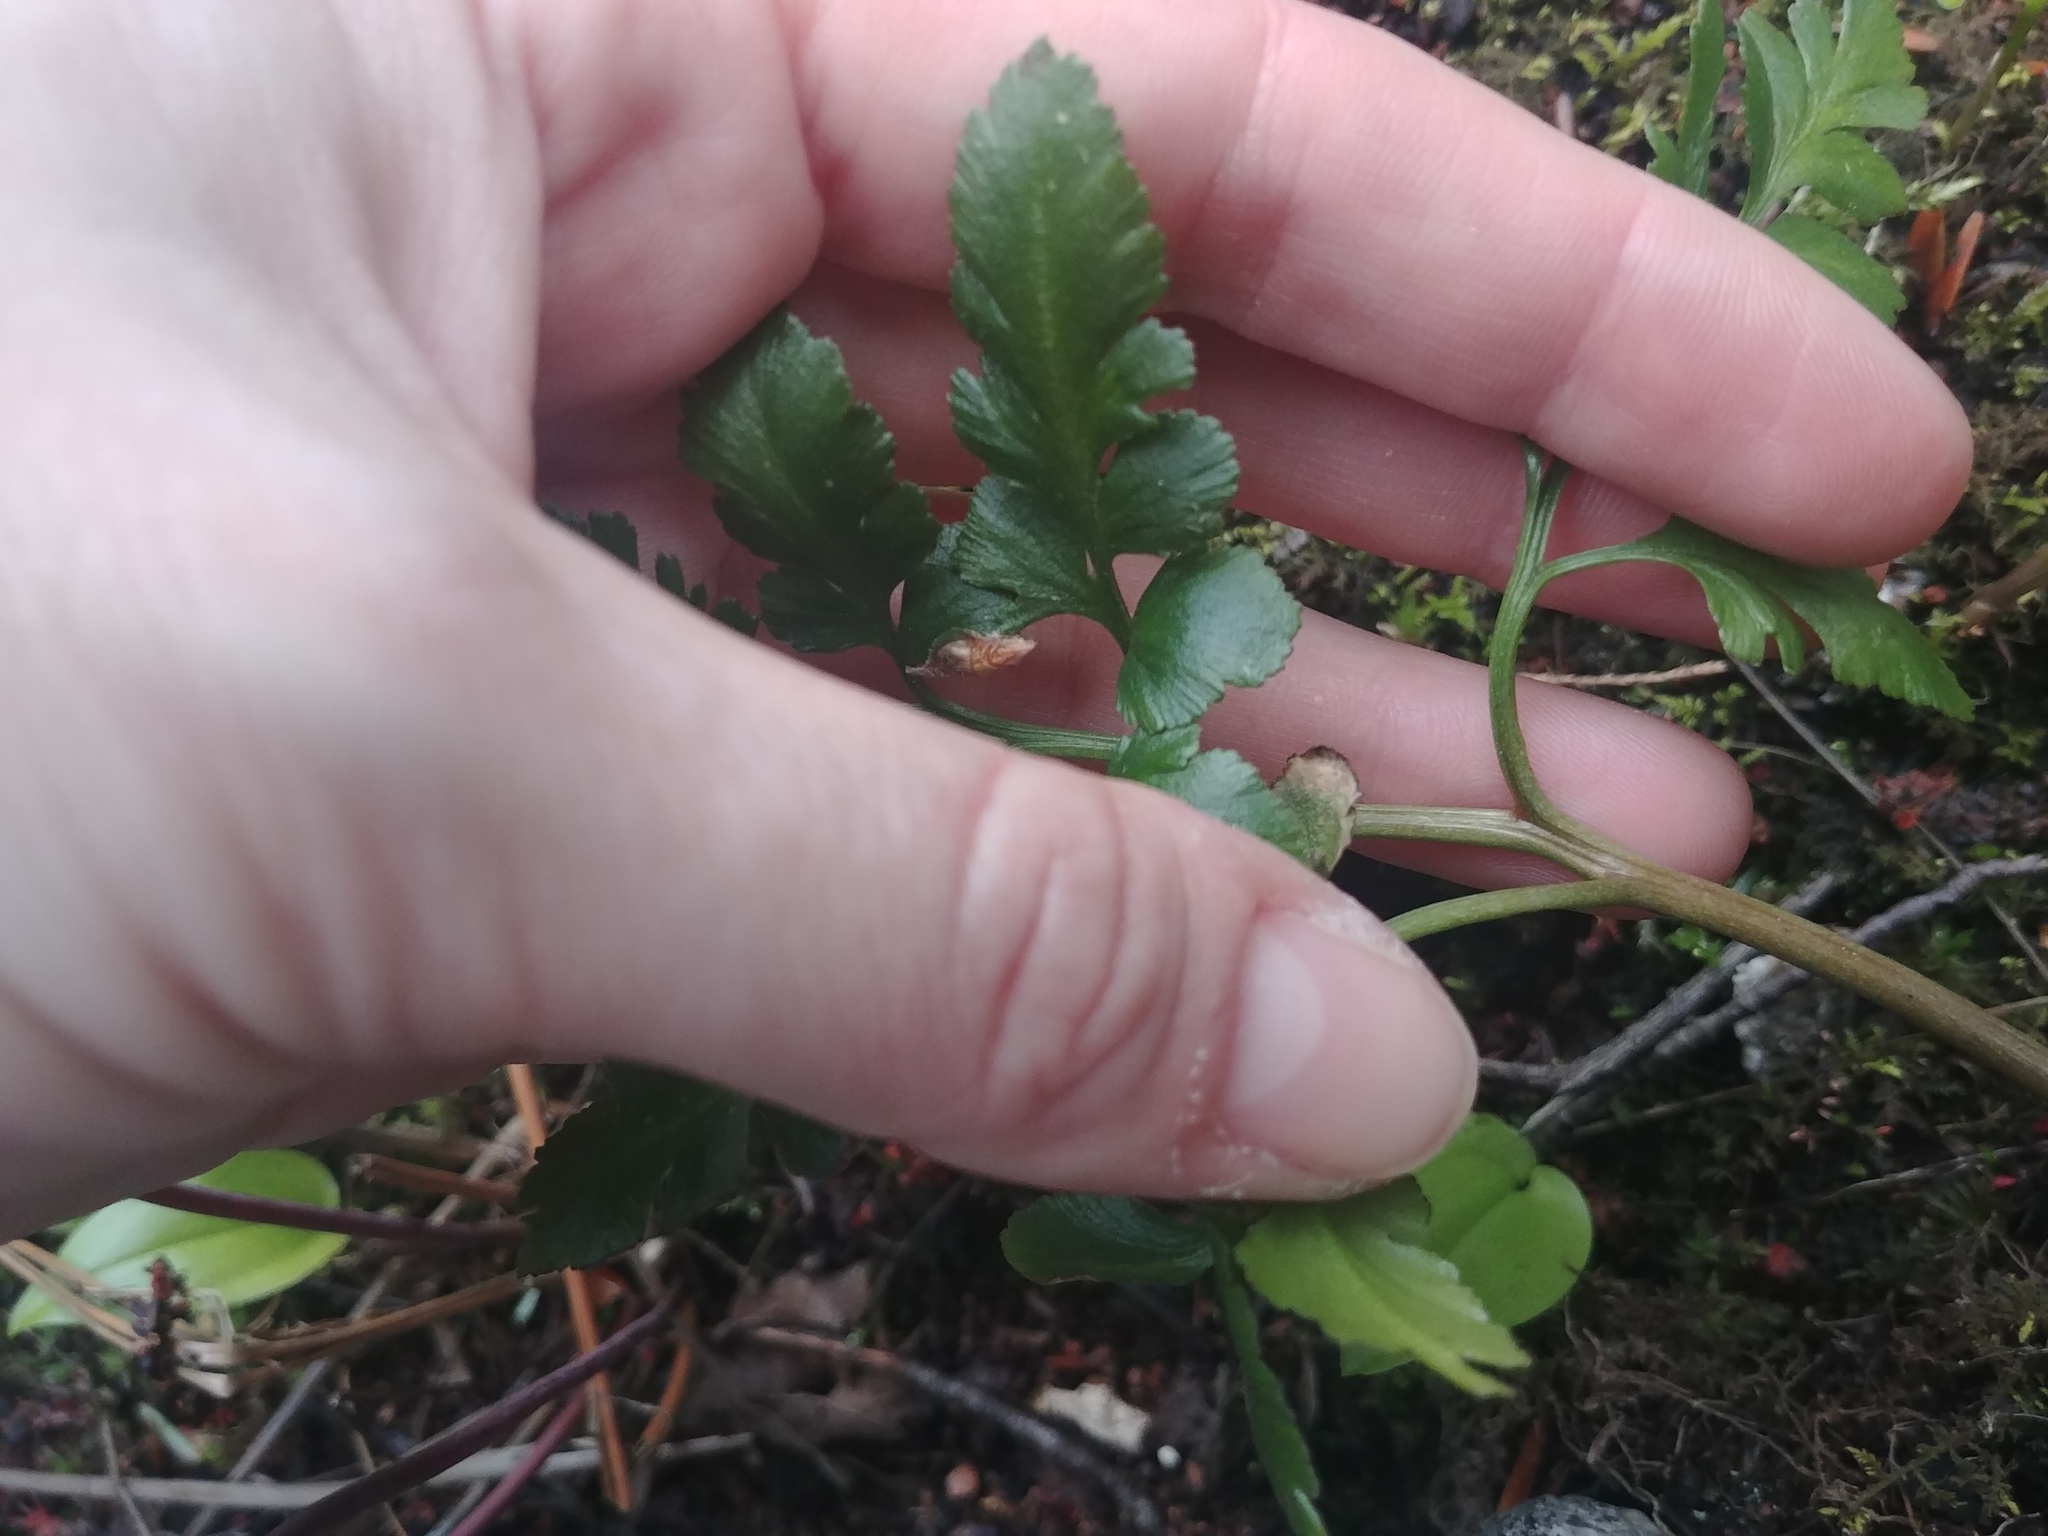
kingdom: Plantae
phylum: Tracheophyta
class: Polypodiopsida
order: Ophioglossales
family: Ophioglossaceae
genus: Sceptridium
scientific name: Sceptridium oneidense
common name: Blunt-lobed grapefern
